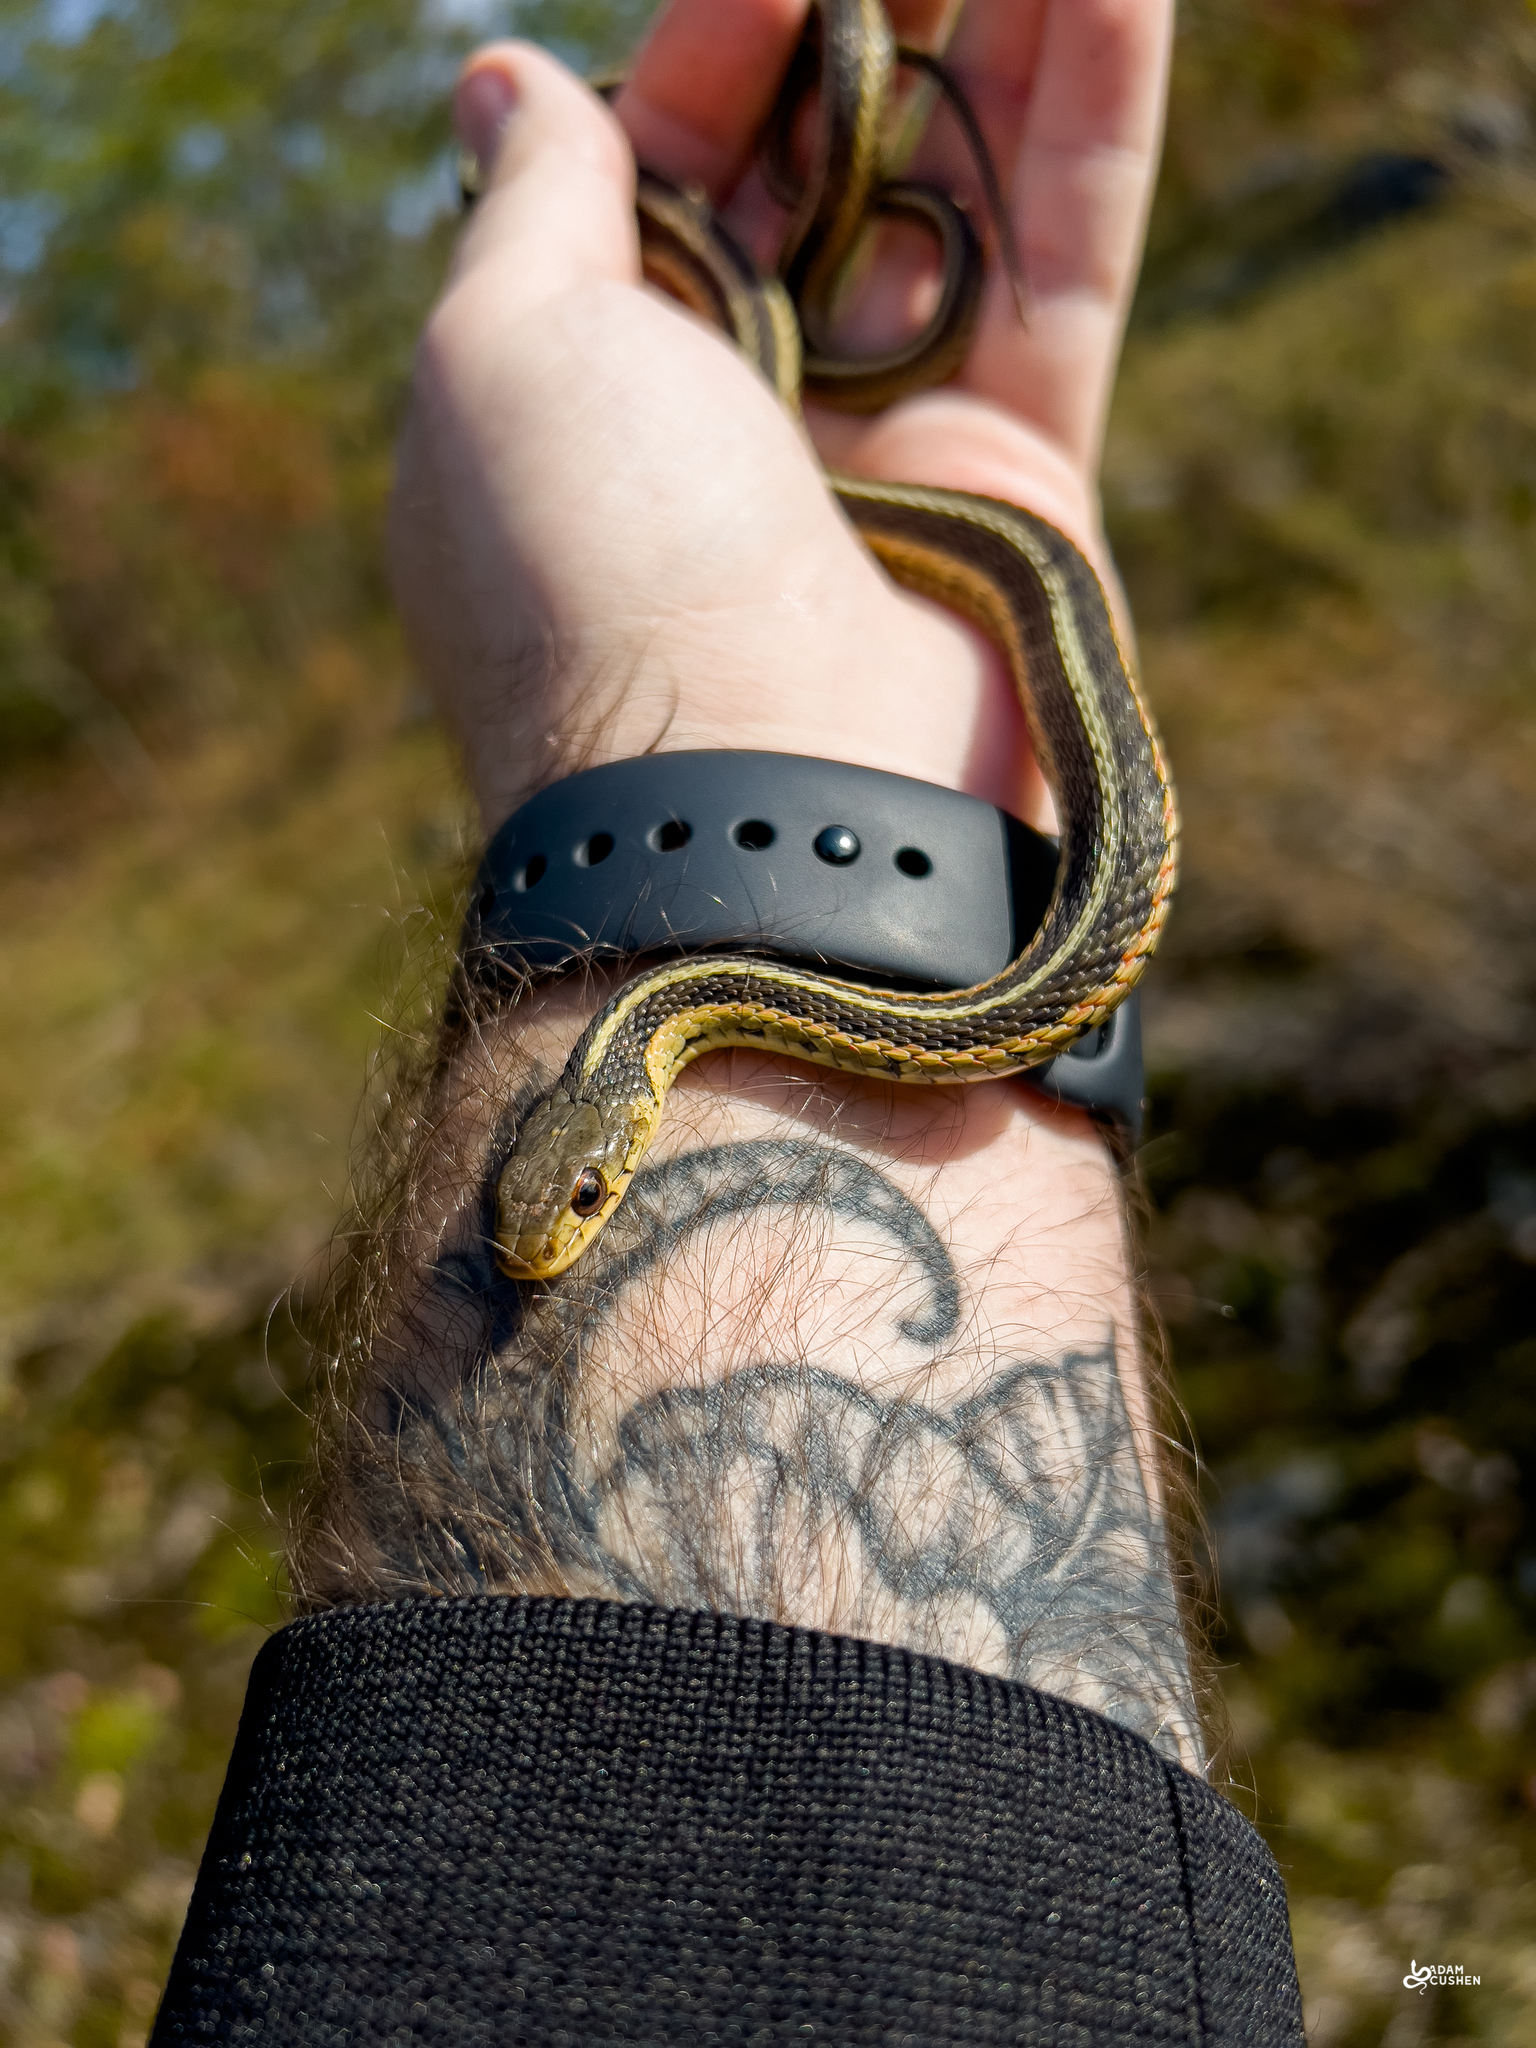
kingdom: Animalia
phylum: Chordata
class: Squamata
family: Colubridae
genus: Thamnophis
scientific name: Thamnophis sirtalis
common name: Common garter snake
